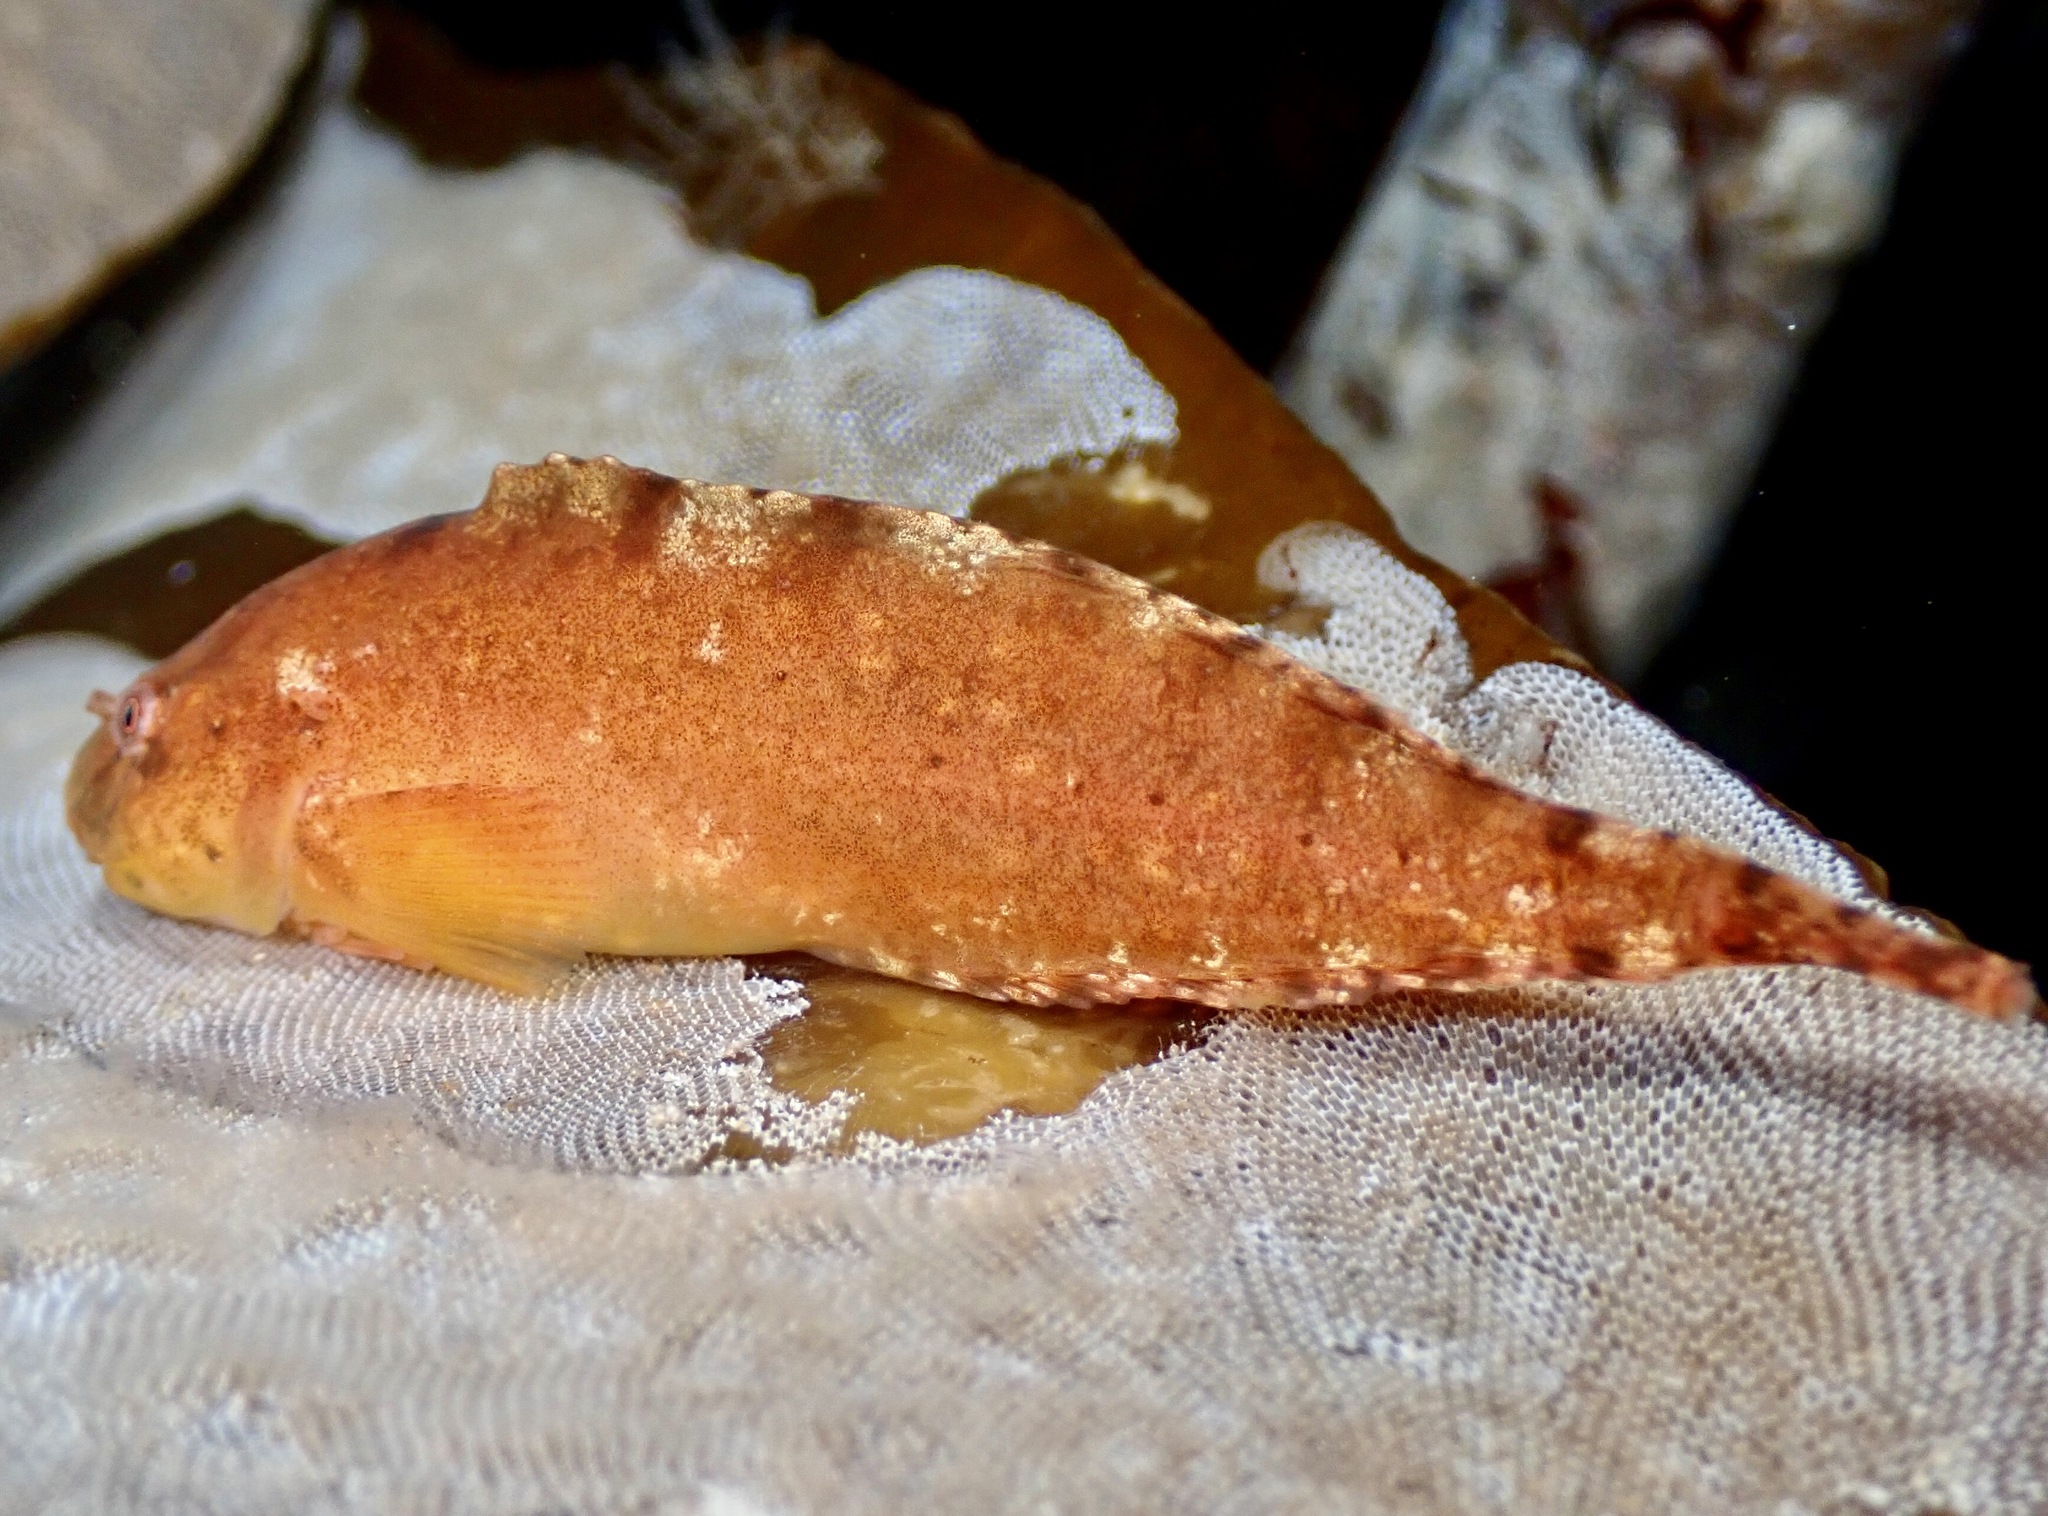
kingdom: Animalia
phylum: Chordata
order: Scorpaeniformes
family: Liparidae
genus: Liparis
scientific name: Liparis montagui
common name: Montagu's sea-snail
